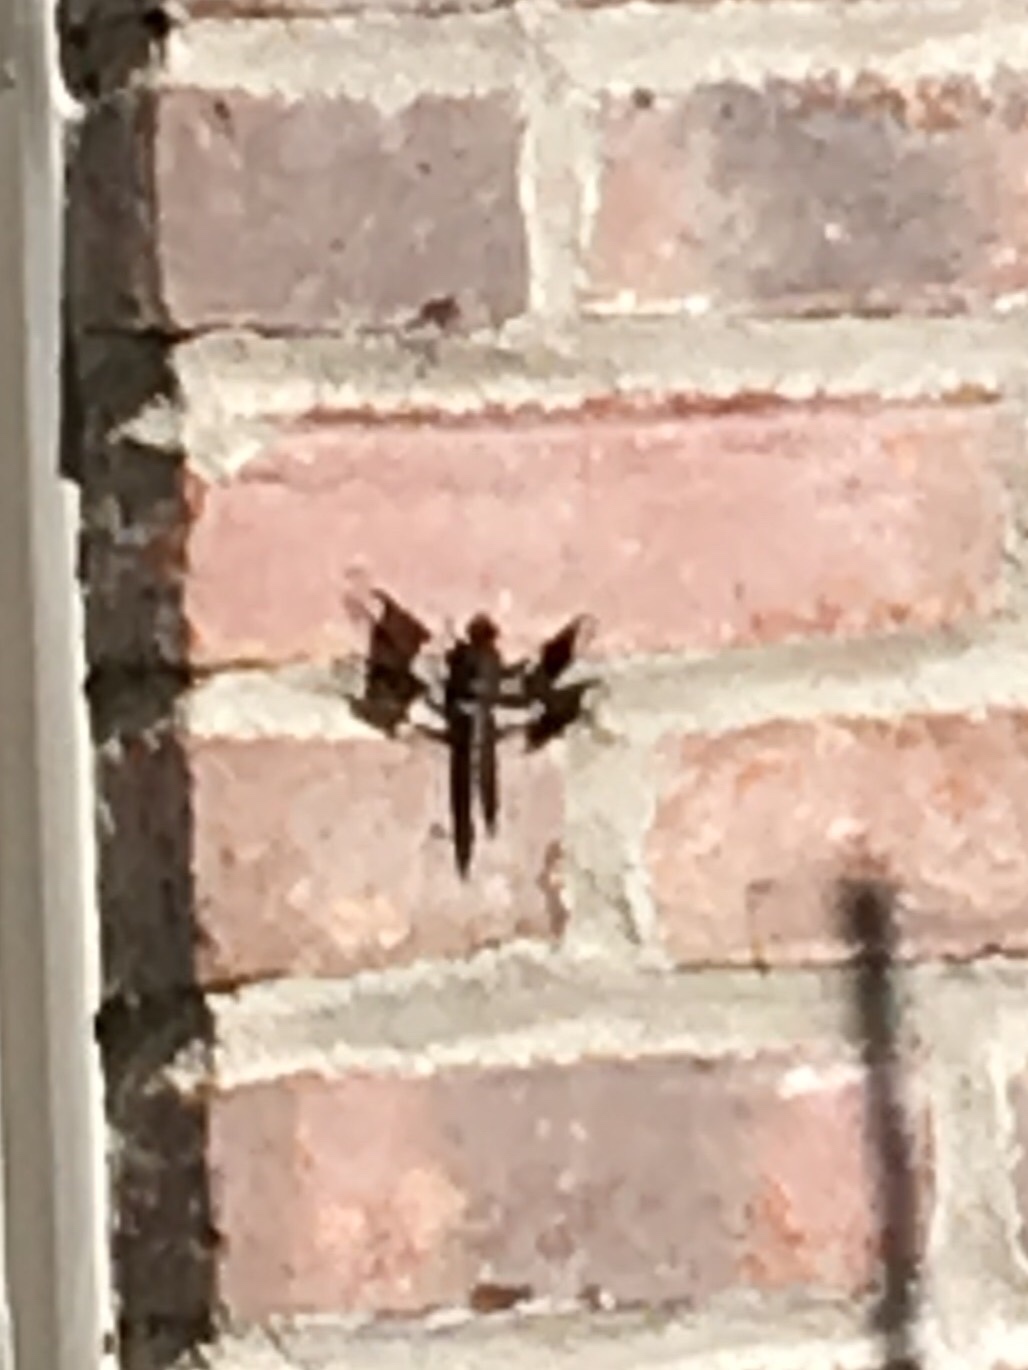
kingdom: Animalia
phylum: Arthropoda
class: Insecta
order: Odonata
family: Libellulidae
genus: Plathemis
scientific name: Plathemis lydia
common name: Common whitetail
